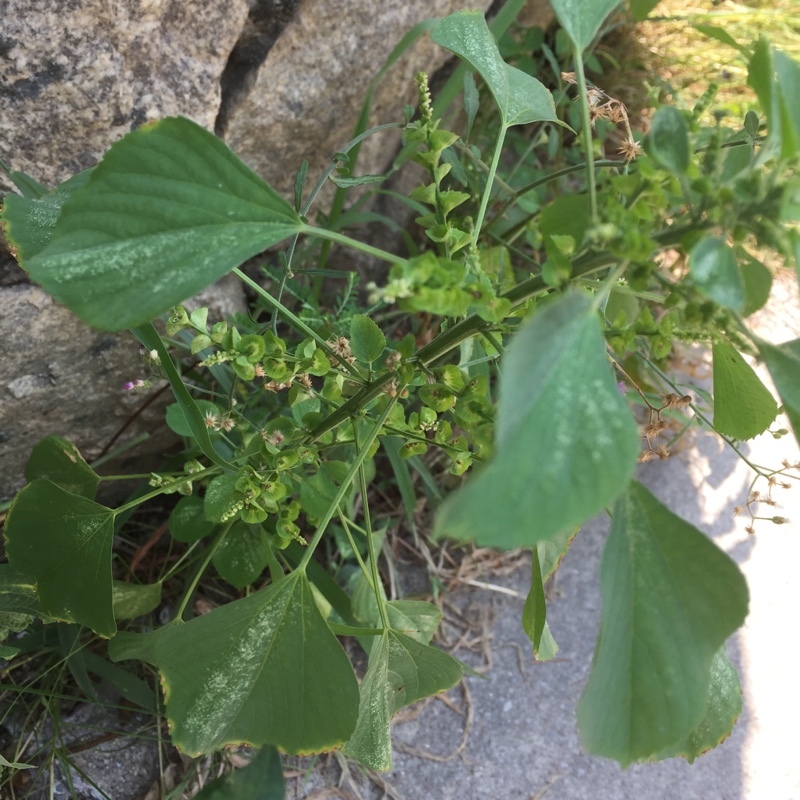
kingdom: Plantae
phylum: Tracheophyta
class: Magnoliopsida
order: Malpighiales
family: Euphorbiaceae
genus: Acalypha
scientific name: Acalypha indica
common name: Indian acalypha
